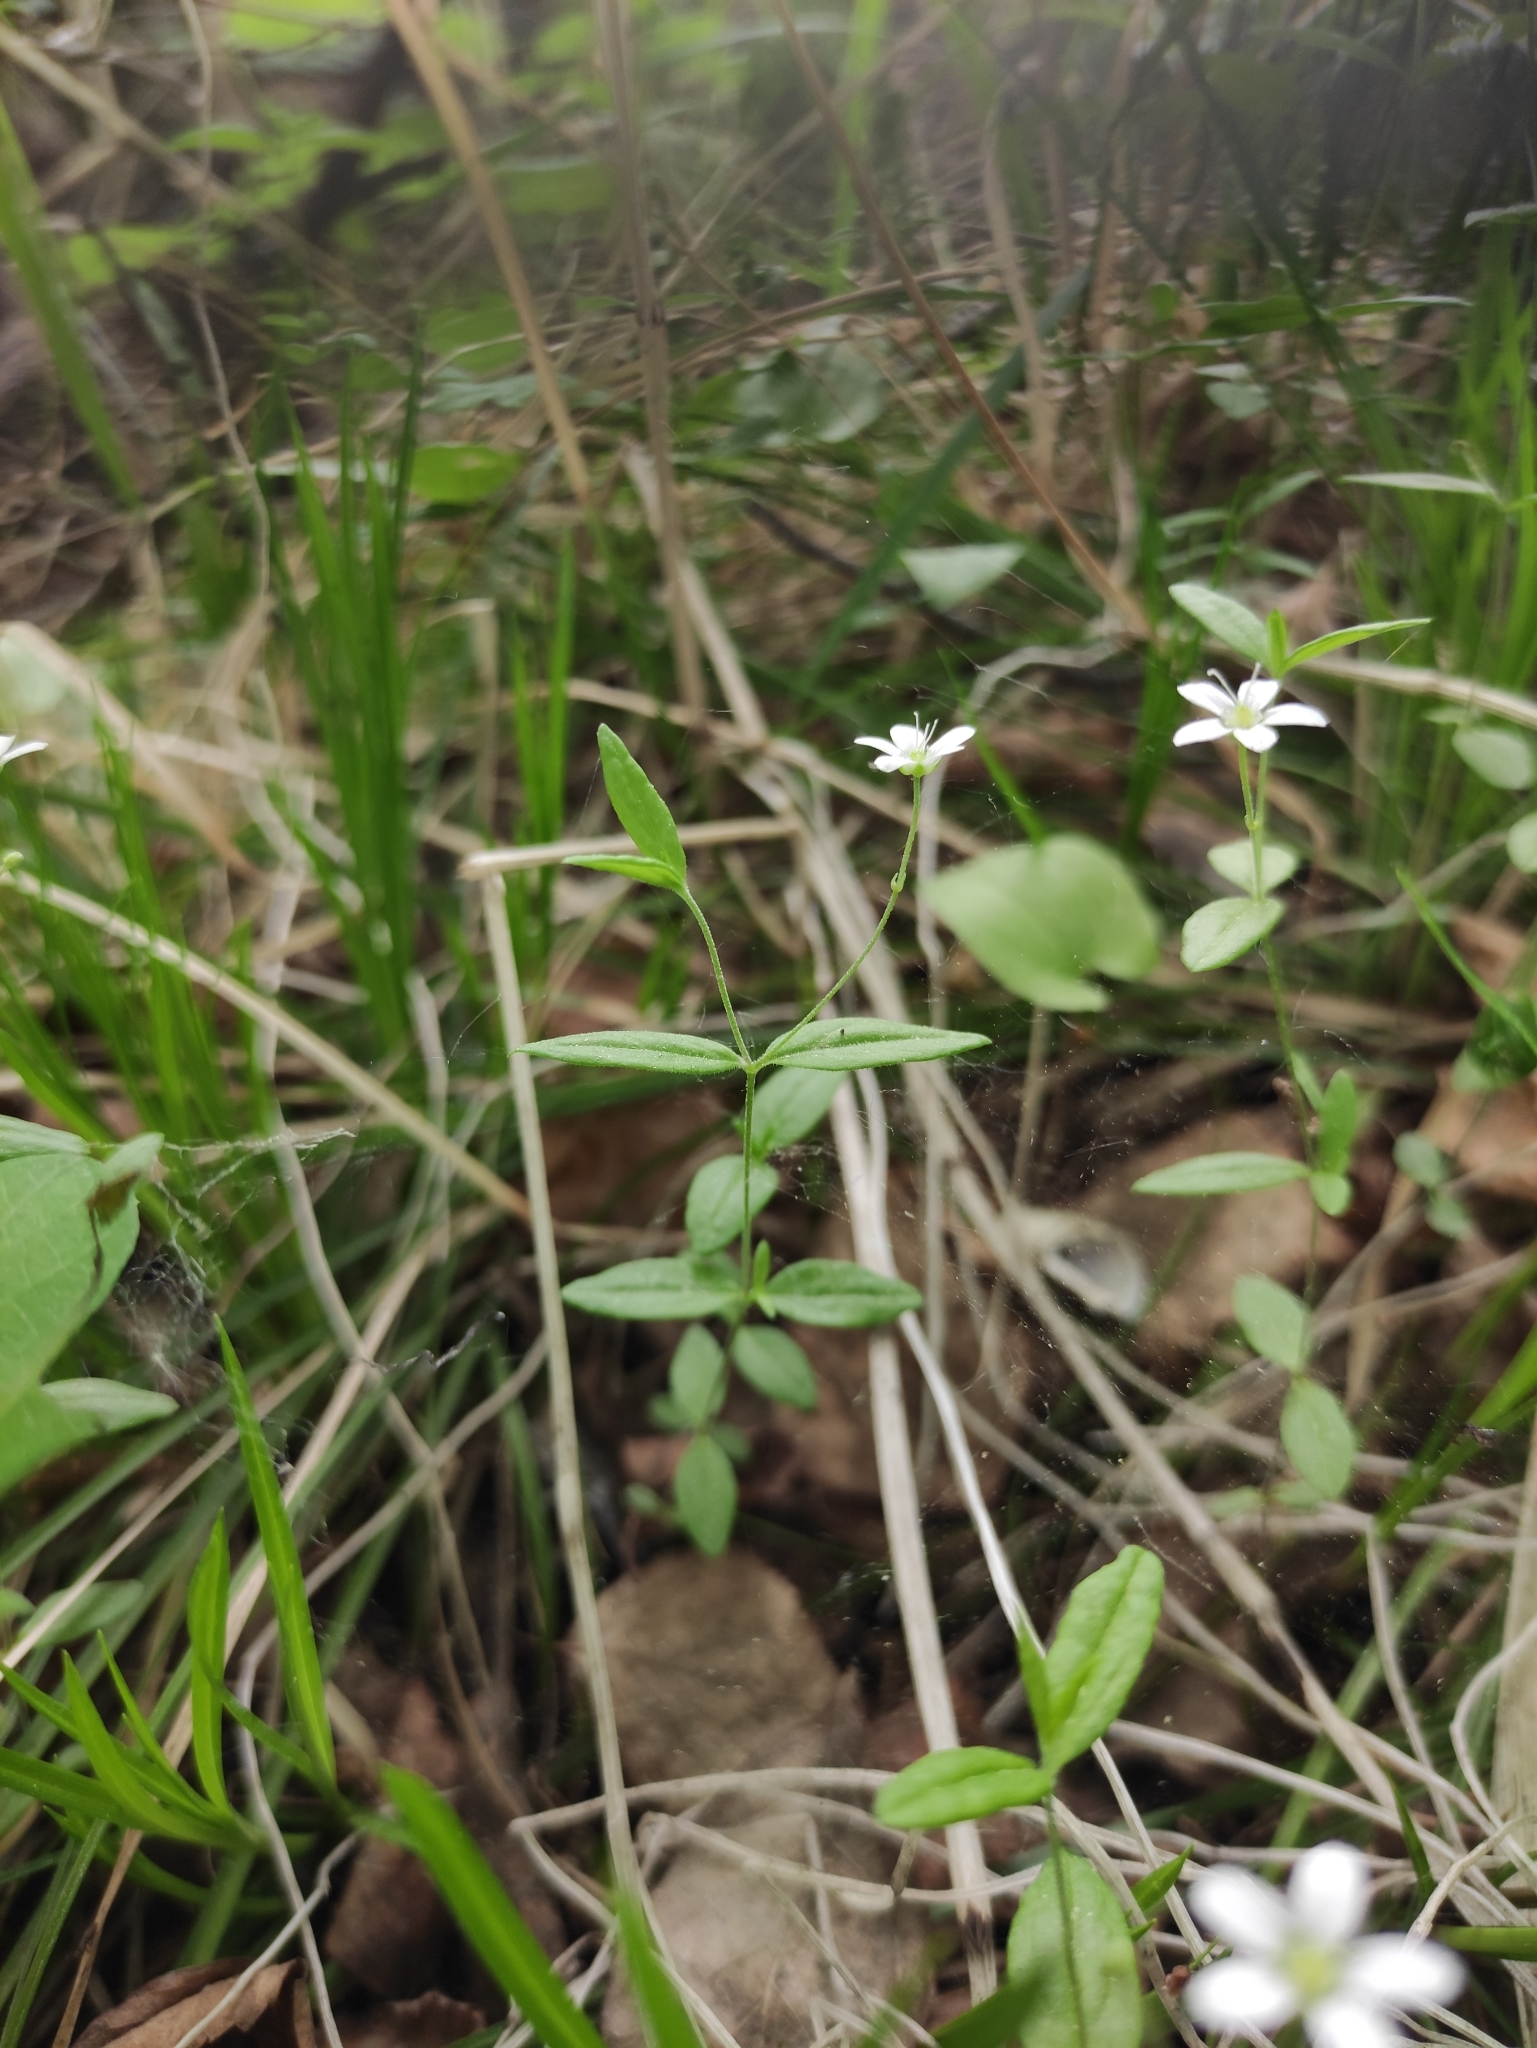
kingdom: Plantae
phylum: Tracheophyta
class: Magnoliopsida
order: Caryophyllales
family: Caryophyllaceae
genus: Moehringia
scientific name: Moehringia lateriflora
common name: Blunt-leaved sandwort
